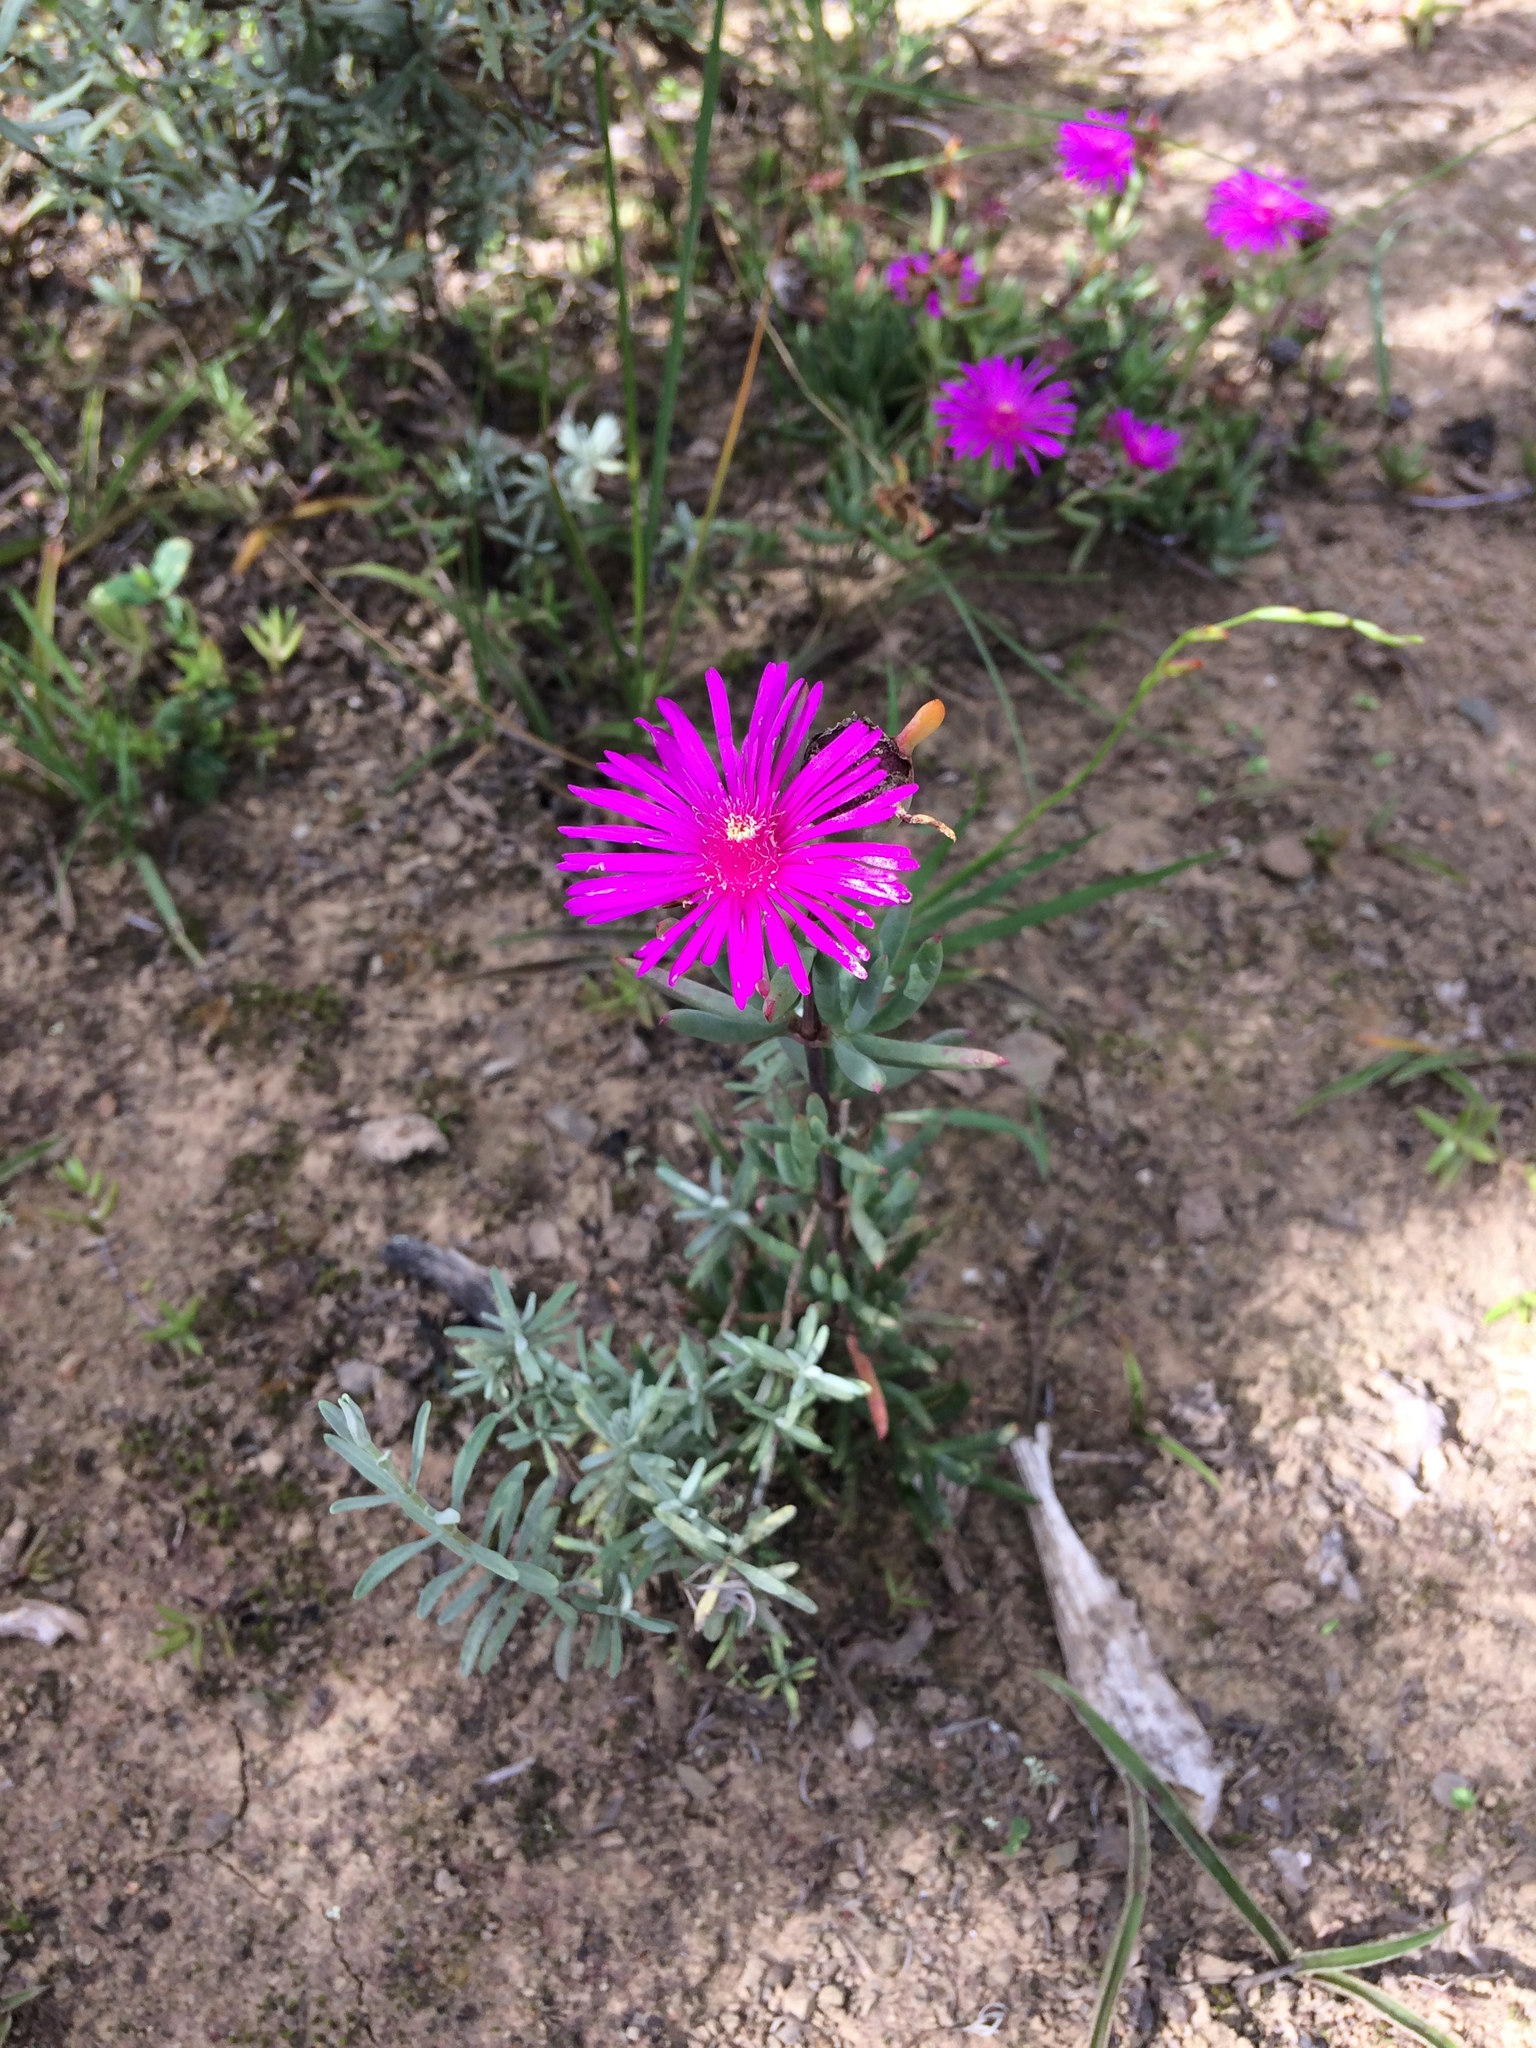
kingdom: Plantae
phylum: Tracheophyta
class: Magnoliopsida
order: Caryophyllales
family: Aizoaceae
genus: Lampranthus
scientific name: Lampranthus spectabilis
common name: Trailing iceplant
